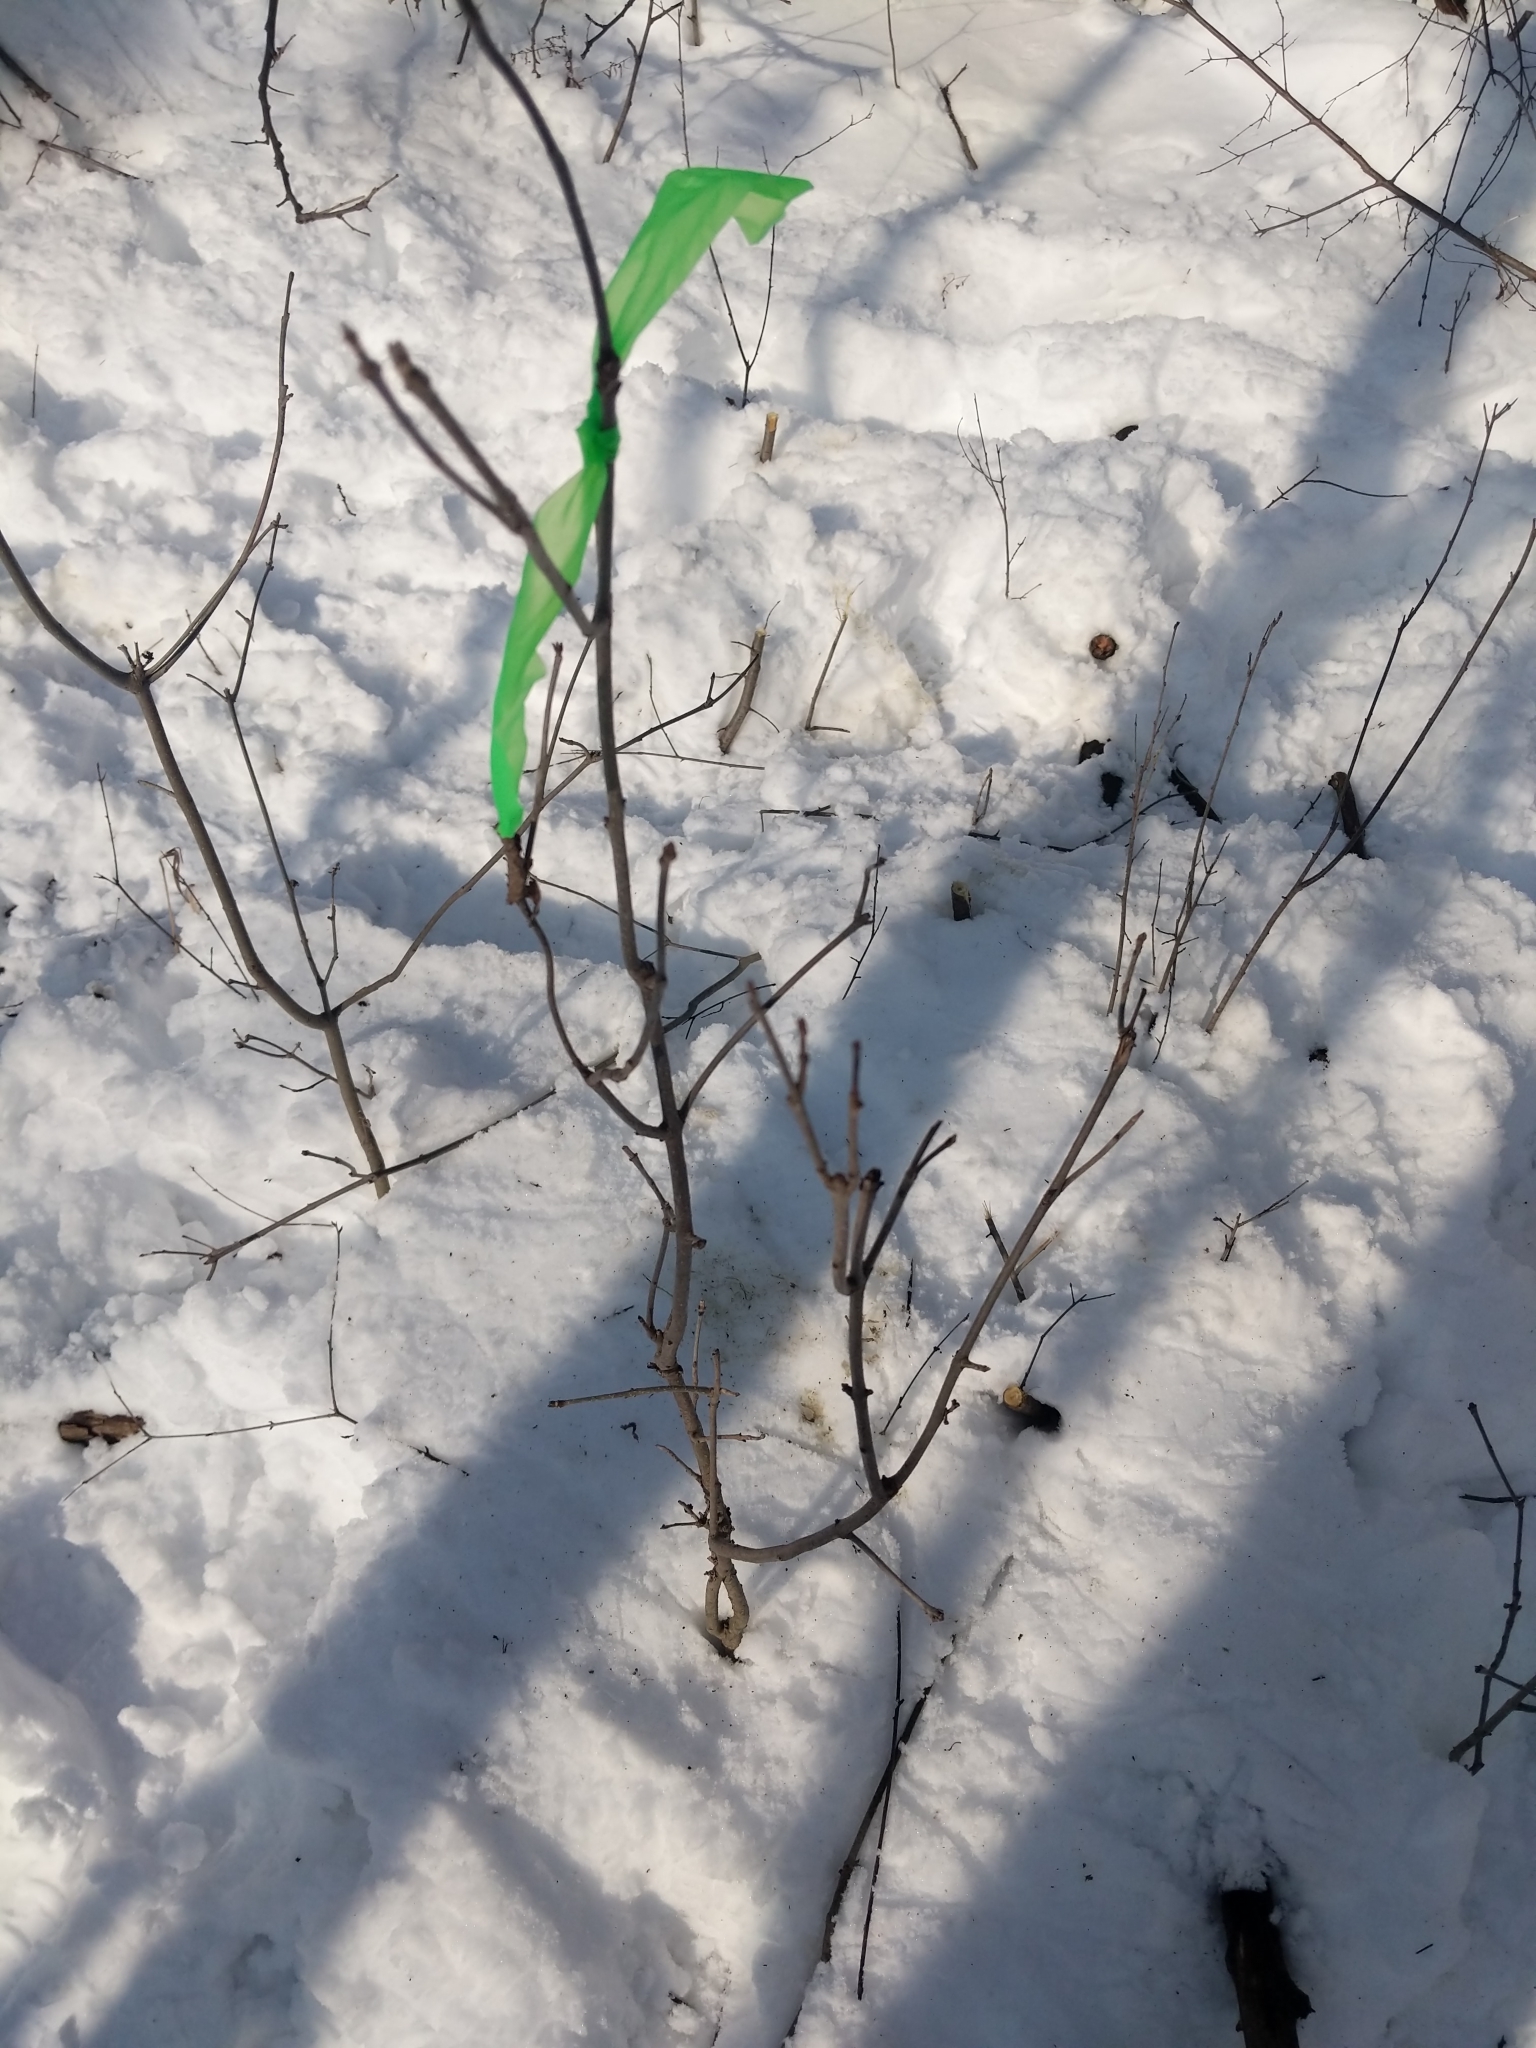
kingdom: Plantae
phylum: Tracheophyta
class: Magnoliopsida
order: Lamiales
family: Oleaceae
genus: Fraxinus
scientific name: Fraxinus pennsylvanica
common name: Green ash
